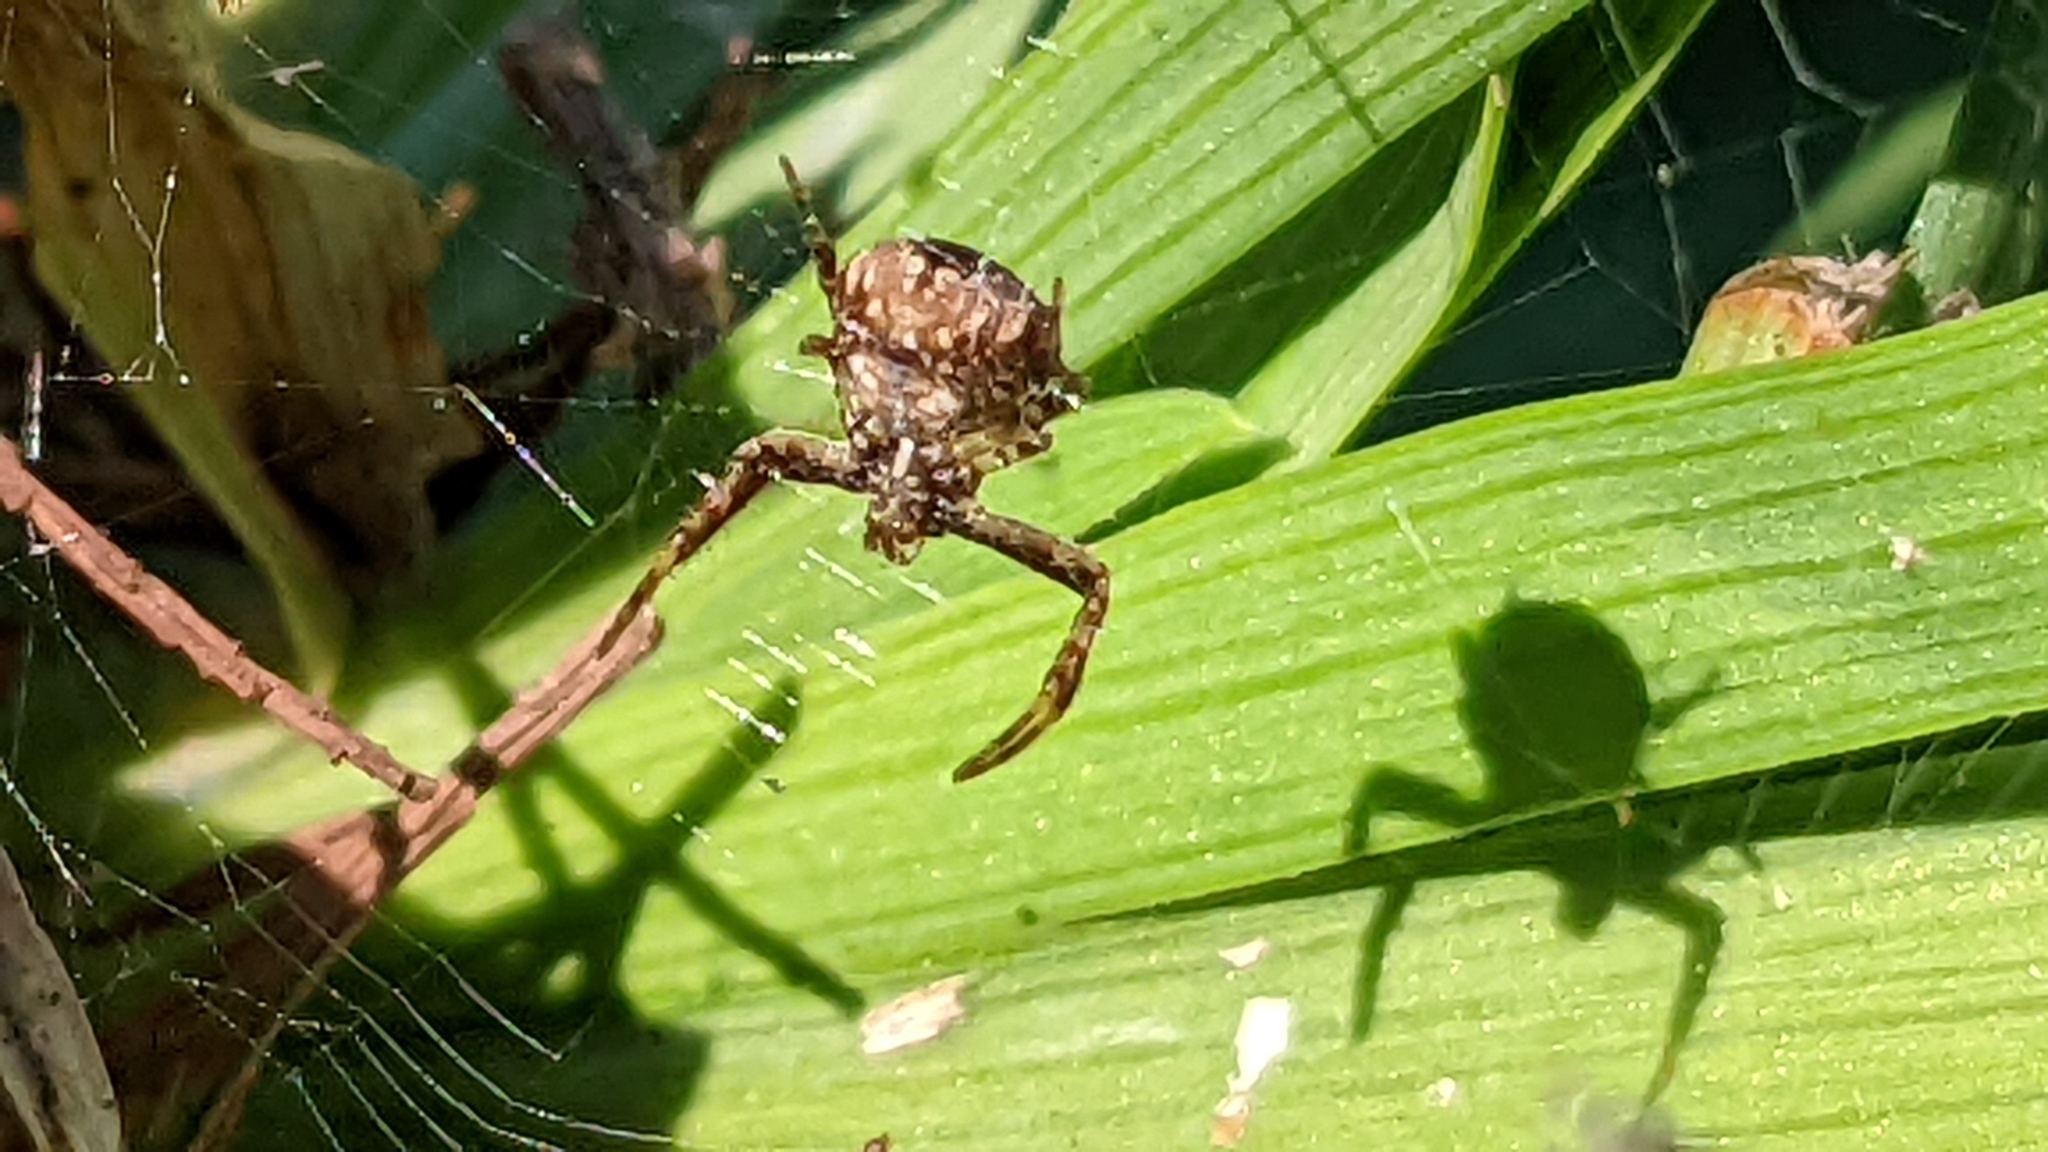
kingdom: Animalia
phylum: Arthropoda
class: Arachnida
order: Araneae
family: Araneidae
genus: Gea
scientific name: Gea heptagon
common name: Orb weavers
